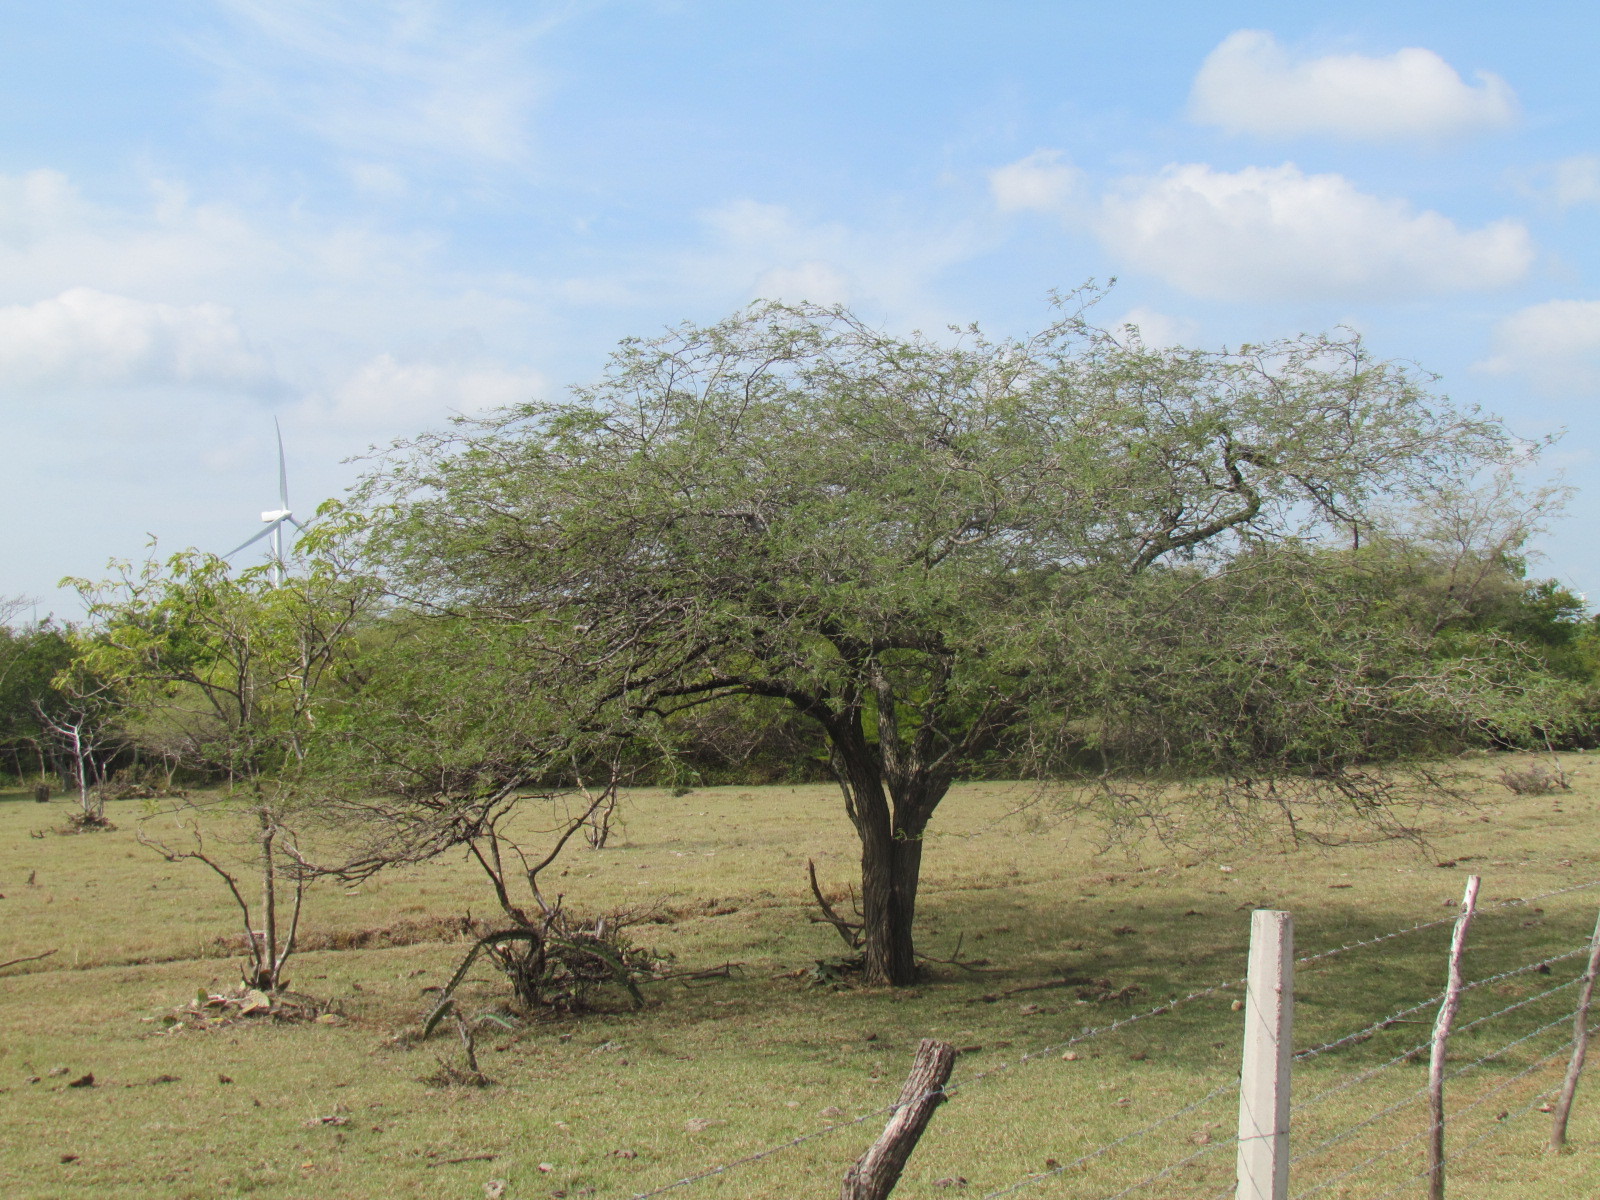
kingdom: Plantae
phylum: Tracheophyta
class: Magnoliopsida
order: Fabales
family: Fabaceae
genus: Prosopis
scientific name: Prosopis laevigata
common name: Smooth mesquite
